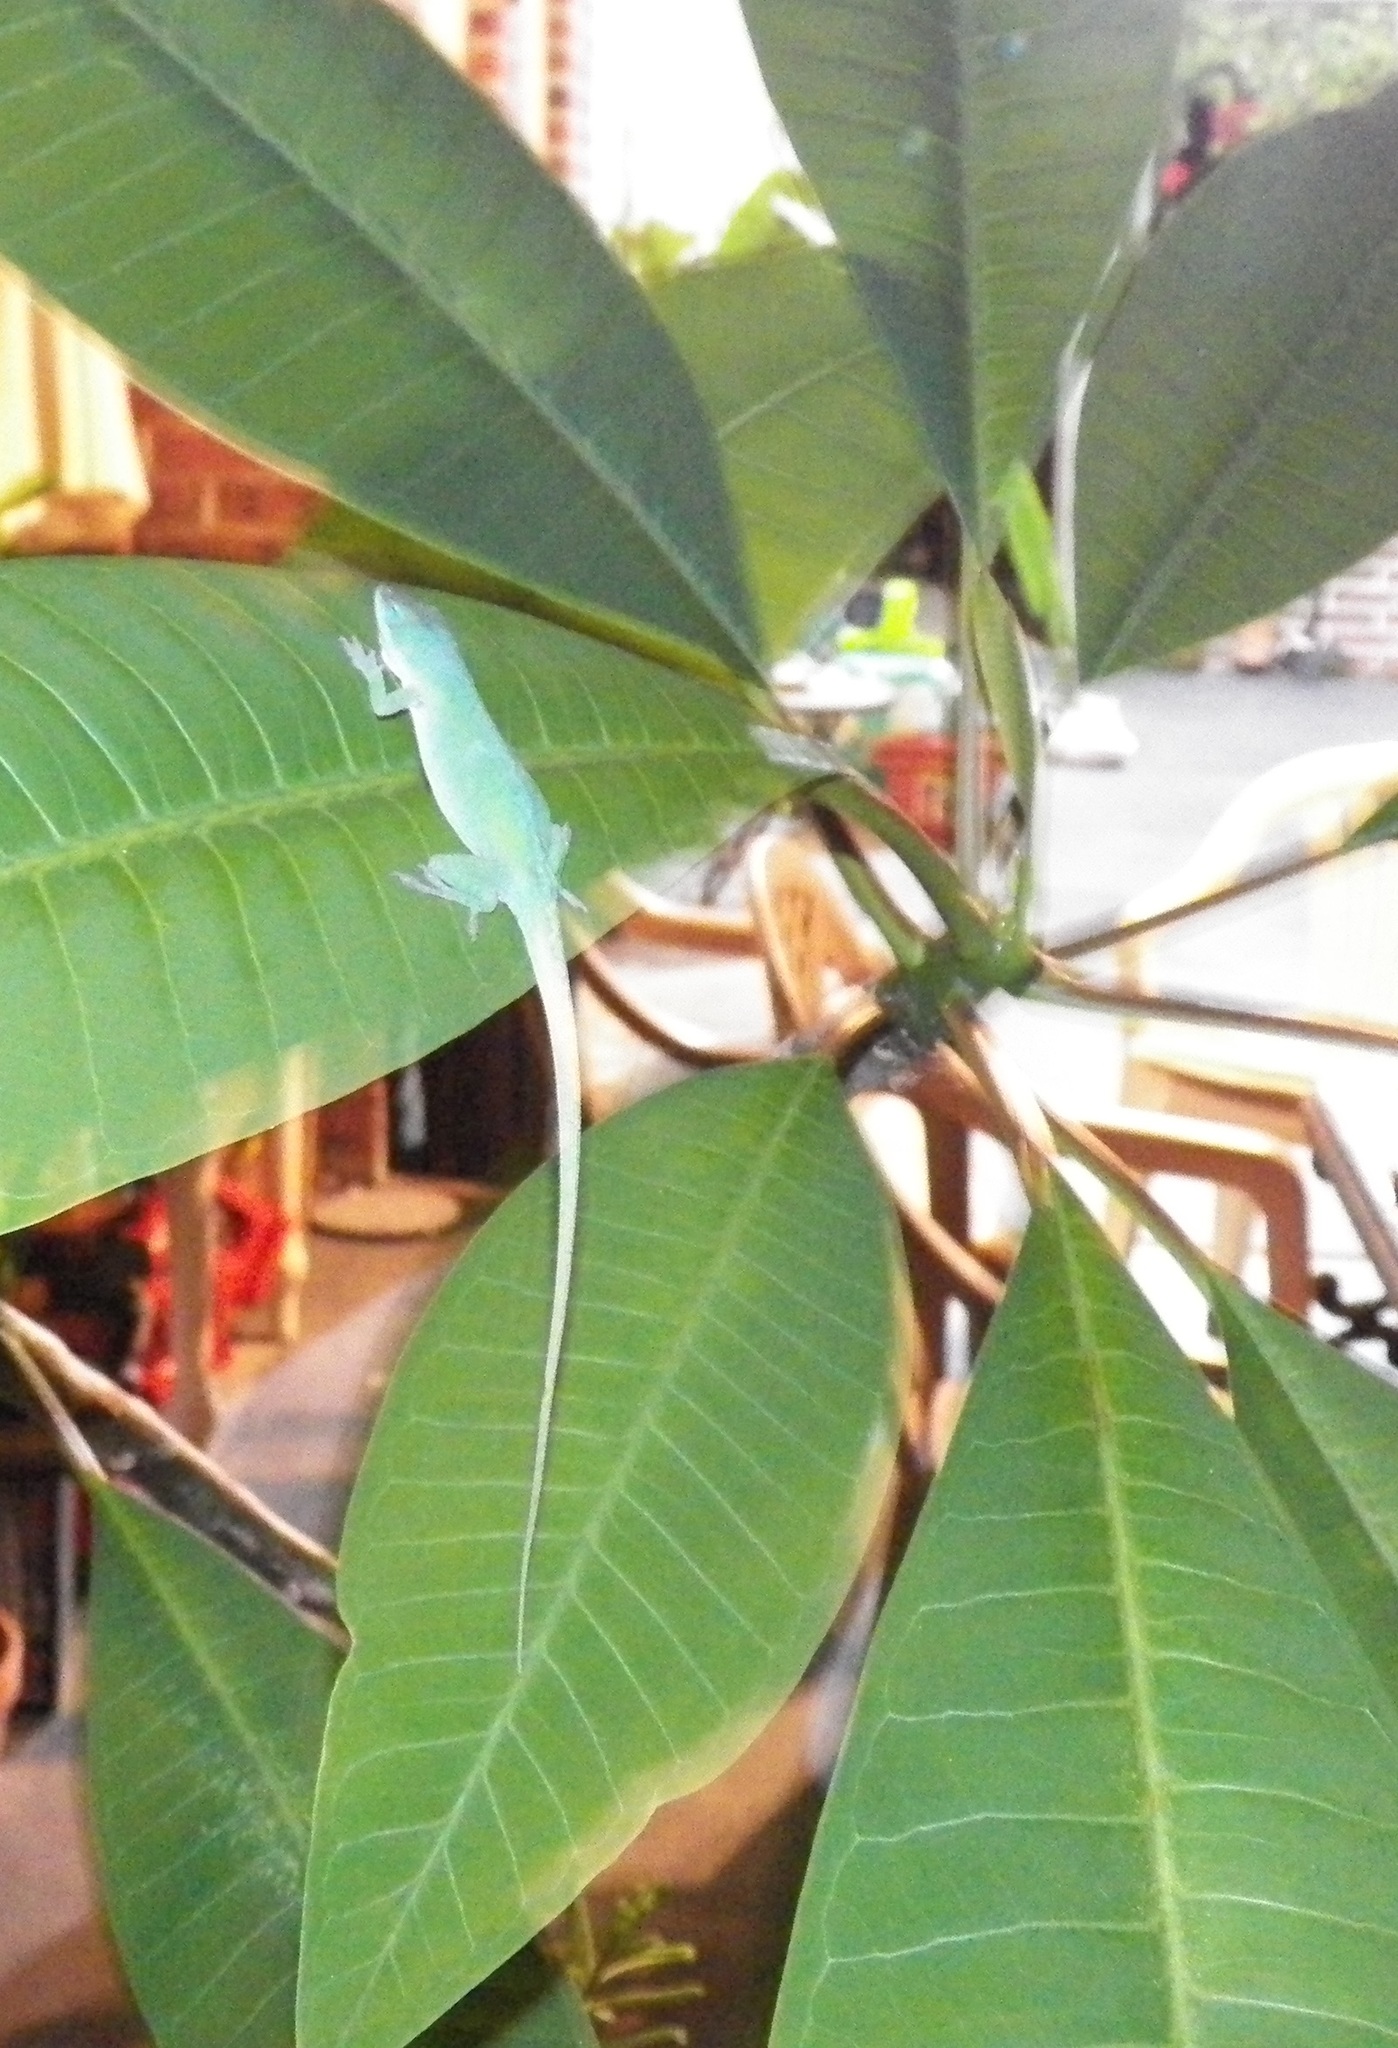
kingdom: Animalia
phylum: Chordata
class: Squamata
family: Dactyloidae
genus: Anolis
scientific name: Anolis carolinensis
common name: Green anole
